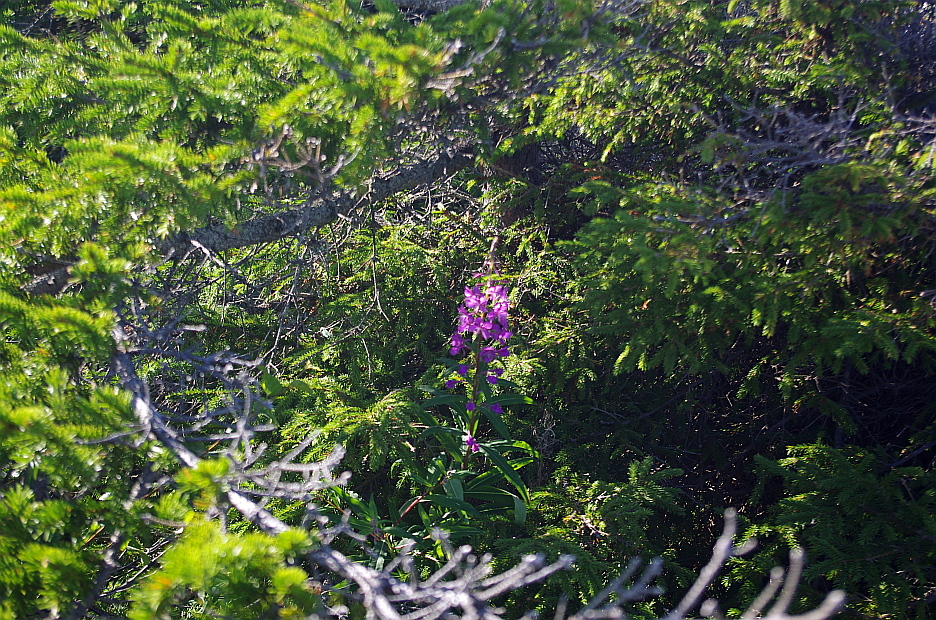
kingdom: Plantae
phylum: Tracheophyta
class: Magnoliopsida
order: Myrtales
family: Onagraceae
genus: Chamaenerion
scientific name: Chamaenerion angustifolium
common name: Fireweed
